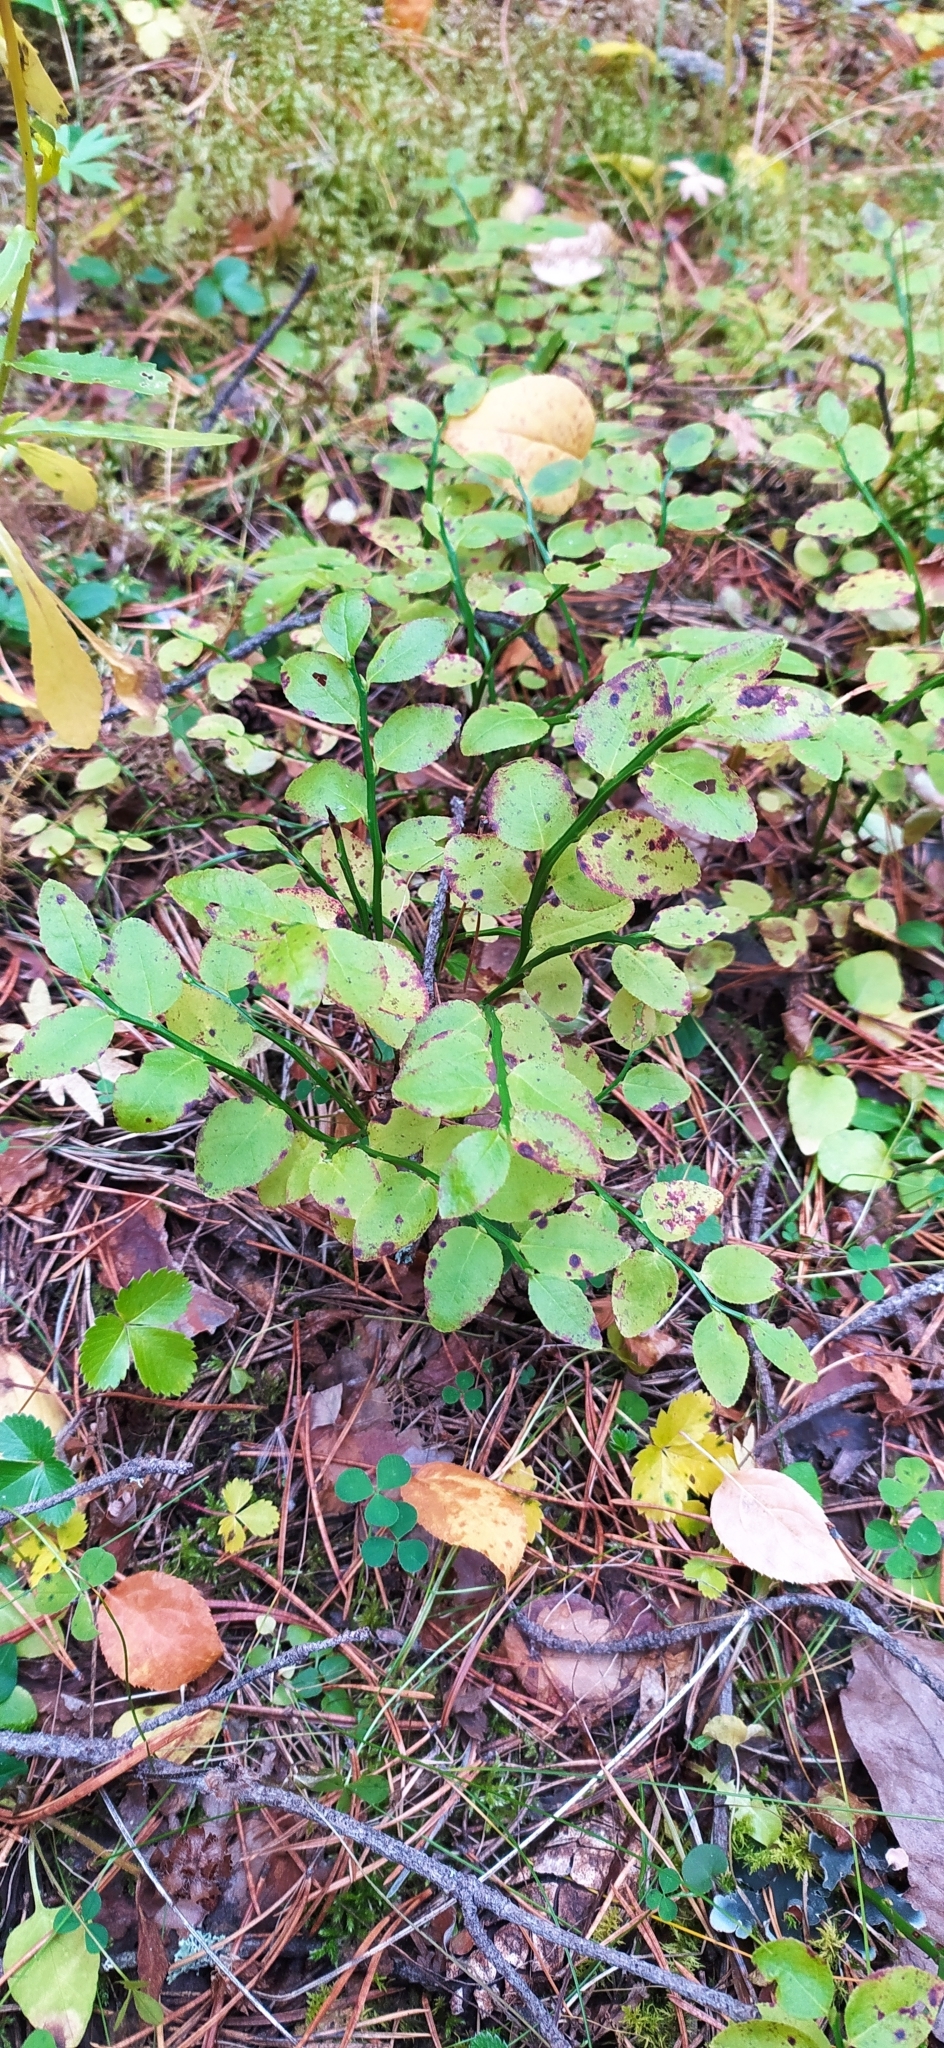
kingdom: Plantae
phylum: Tracheophyta
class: Magnoliopsida
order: Ericales
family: Ericaceae
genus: Vaccinium
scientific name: Vaccinium myrtillus
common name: Bilberry
